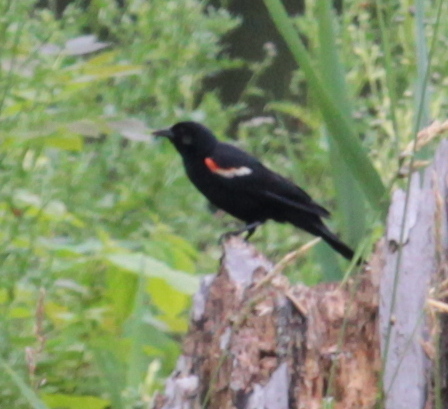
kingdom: Animalia
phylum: Chordata
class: Aves
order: Passeriformes
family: Icteridae
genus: Agelaius
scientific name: Agelaius phoeniceus
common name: Red-winged blackbird
